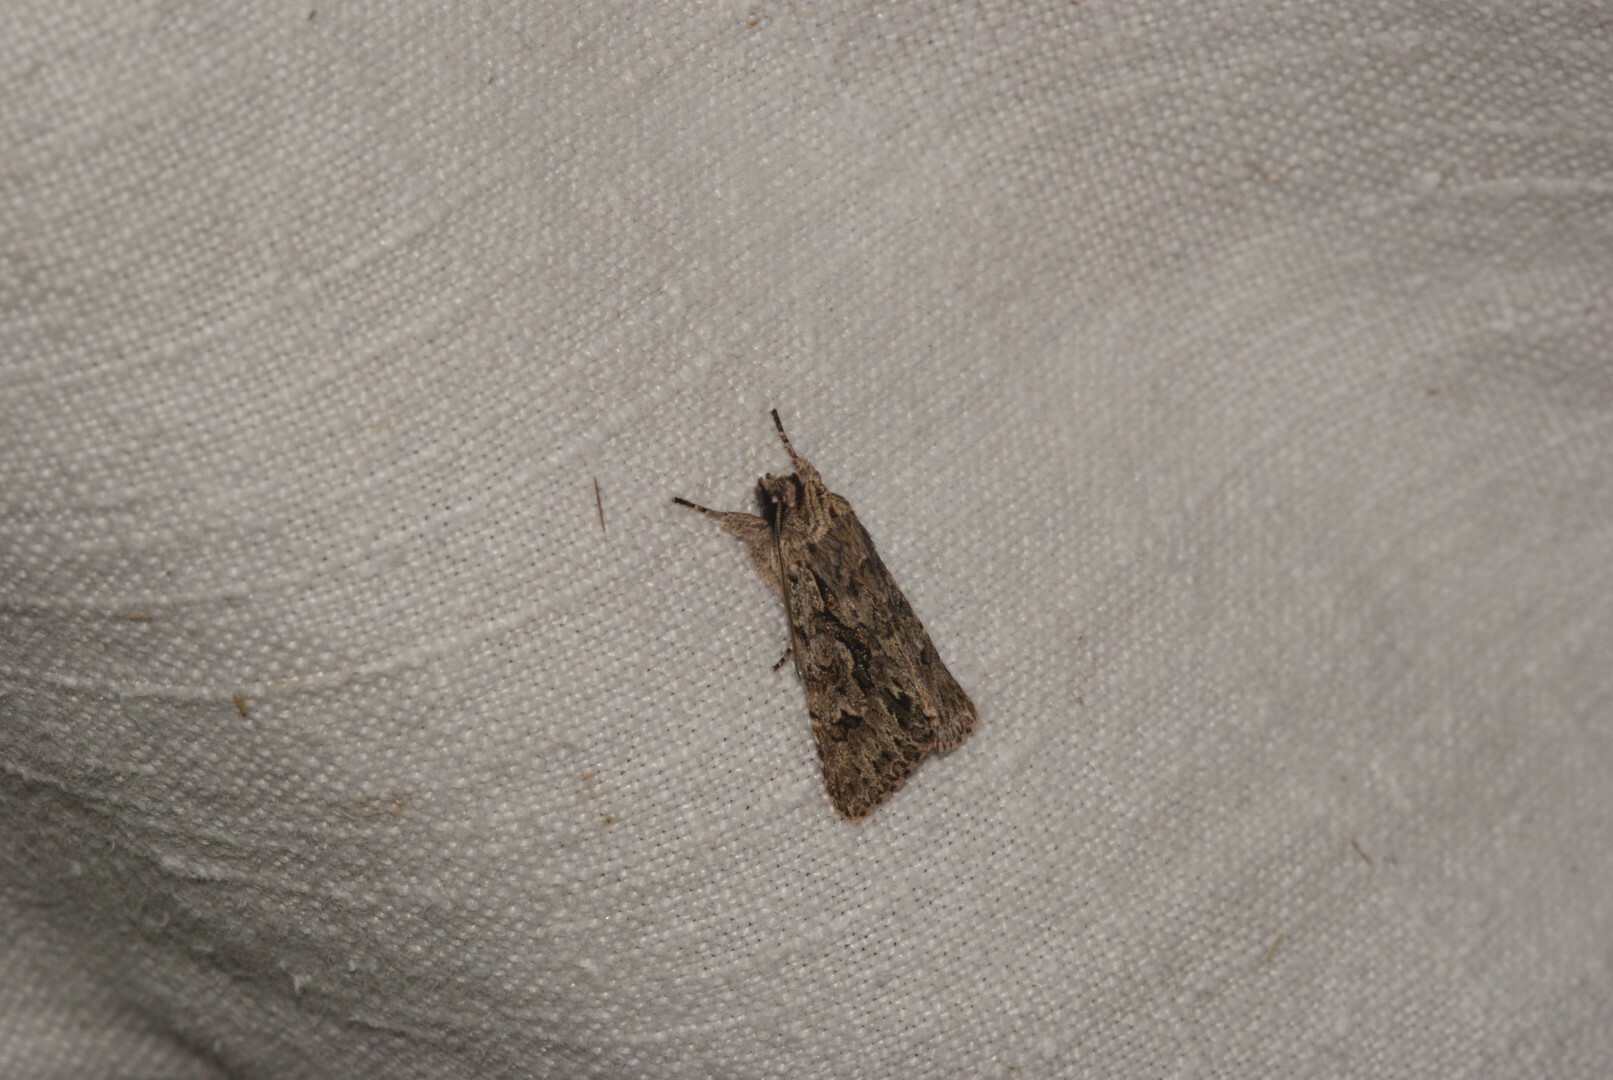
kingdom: Animalia
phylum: Arthropoda
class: Insecta
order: Lepidoptera
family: Noctuidae
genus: Xylocampa
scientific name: Xylocampa areola
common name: Early grey
